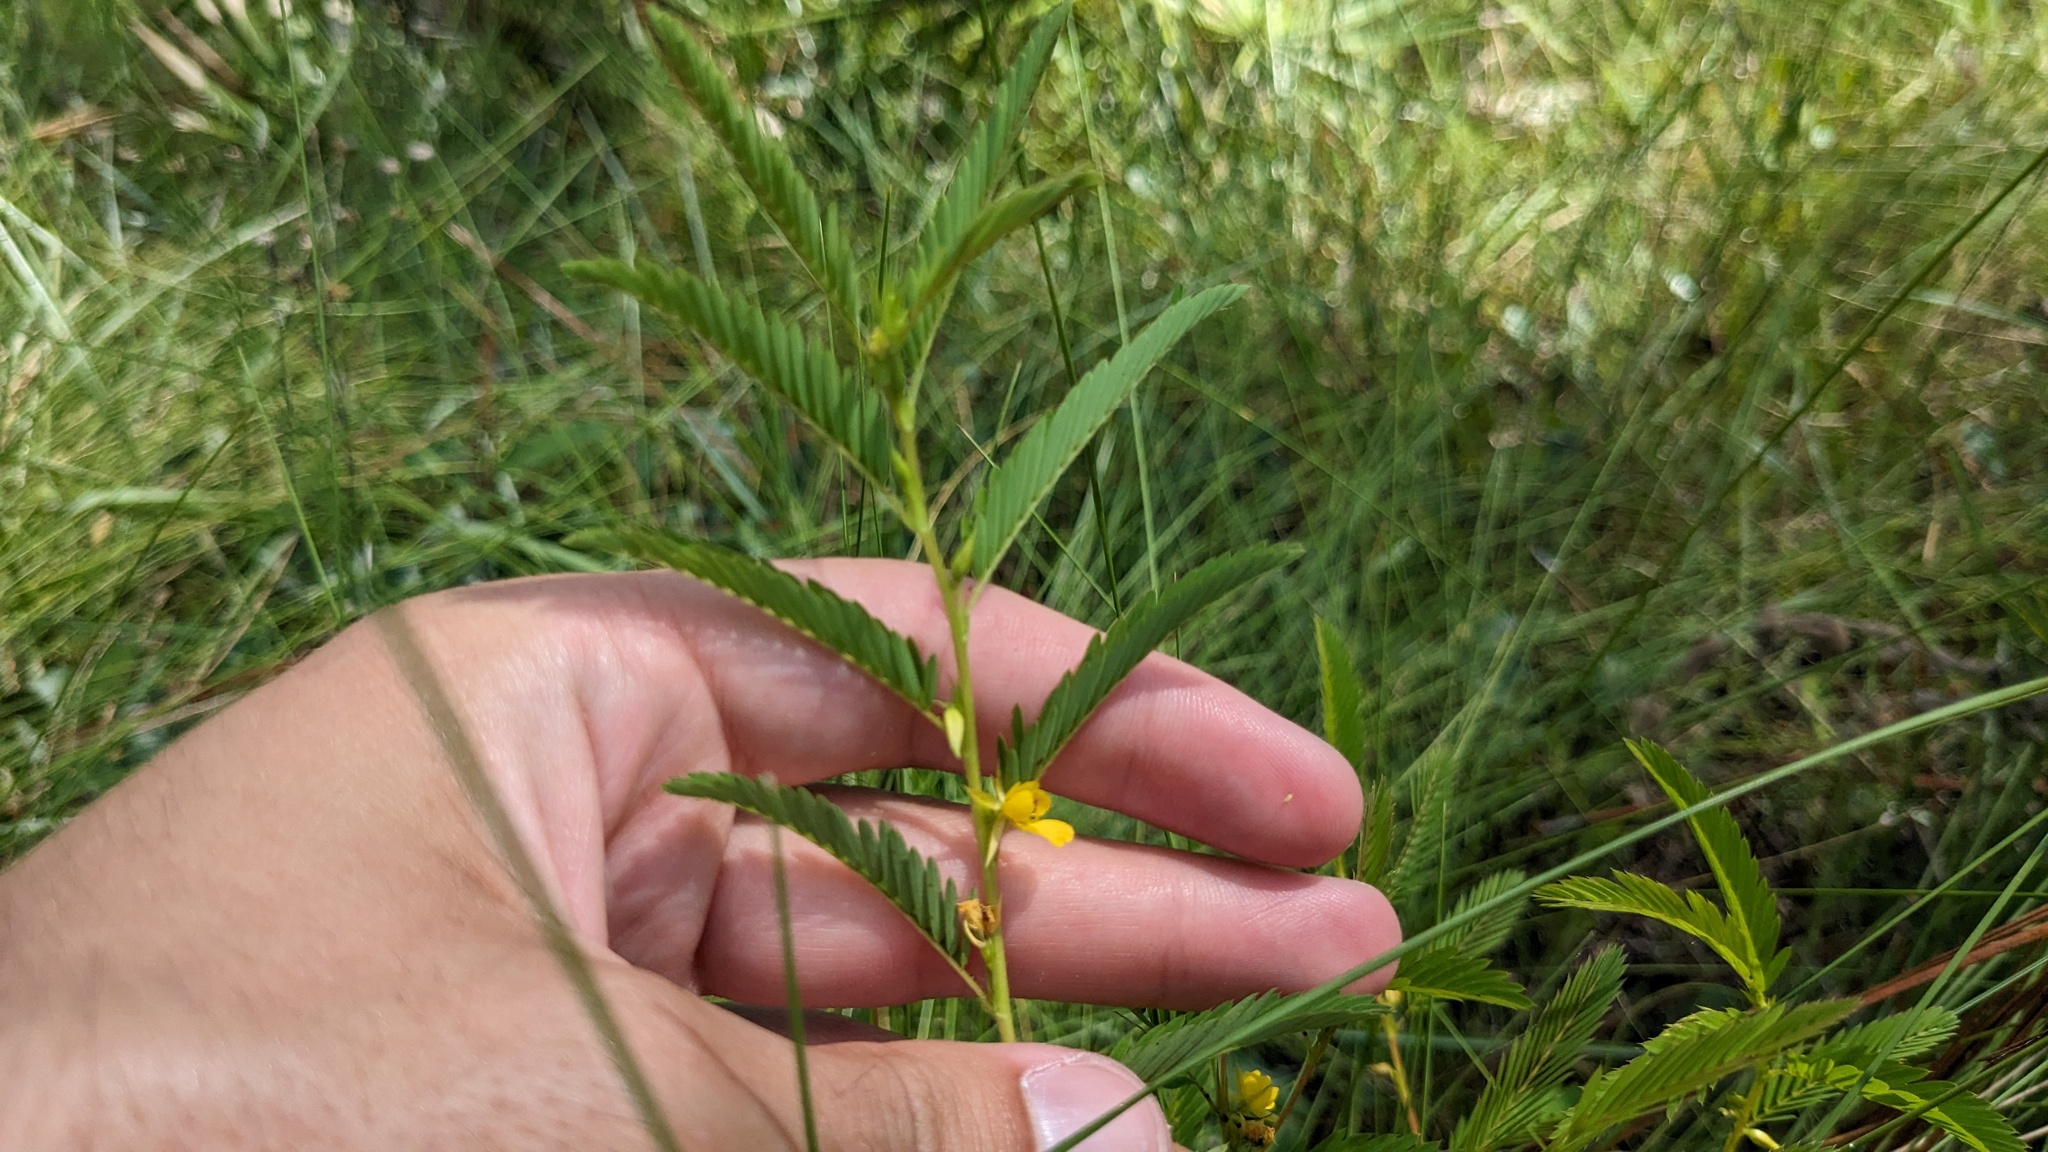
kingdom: Plantae
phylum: Tracheophyta
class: Magnoliopsida
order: Fabales
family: Fabaceae
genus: Chamaecrista
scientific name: Chamaecrista nictitans
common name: Sensitive cassia
